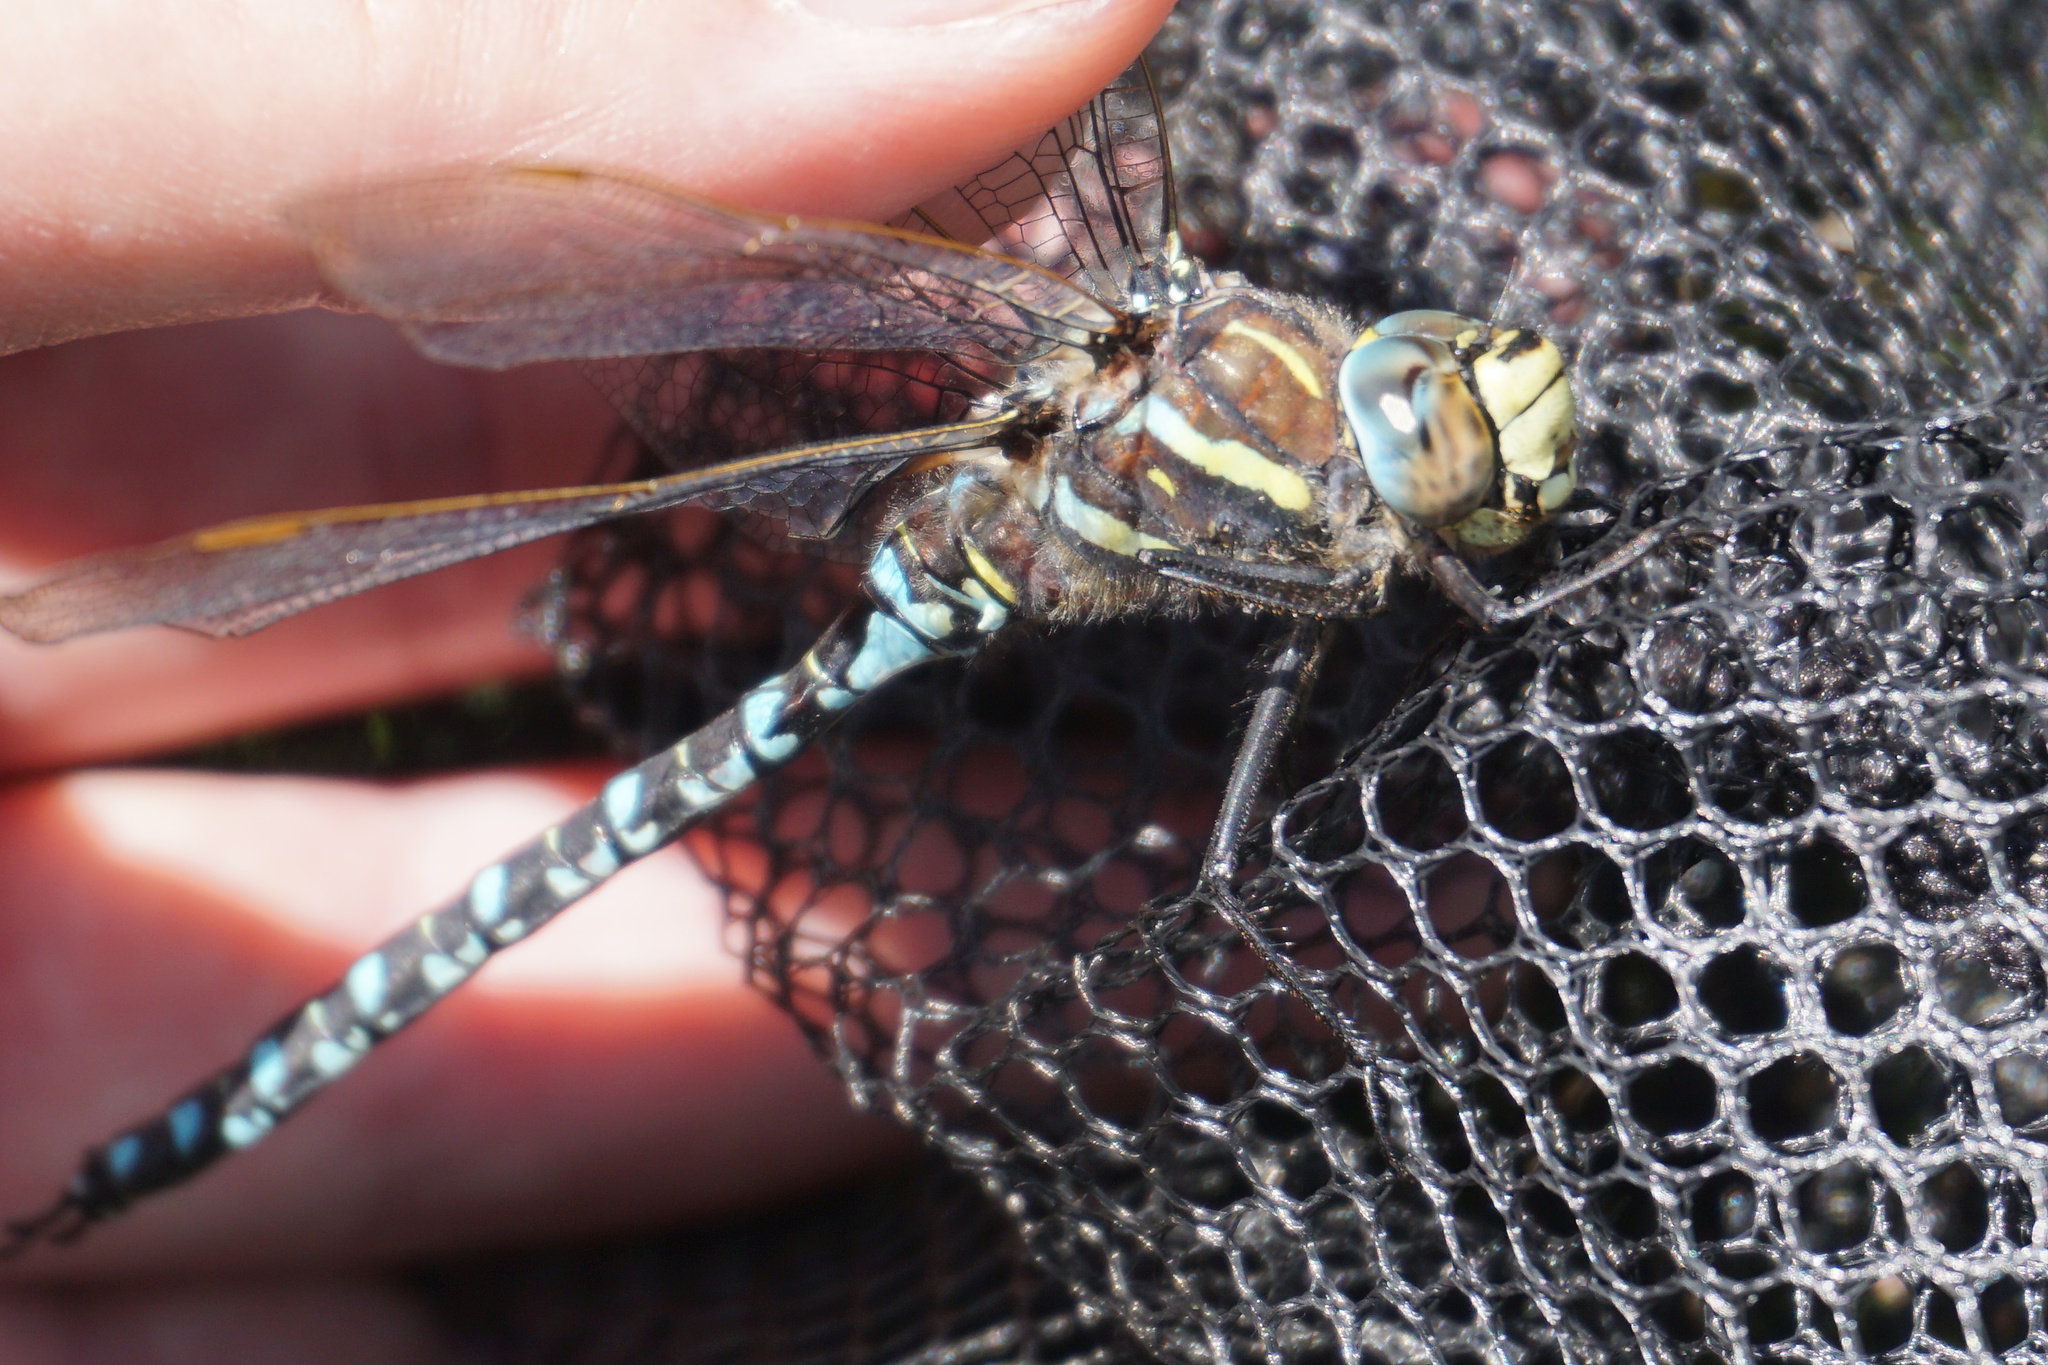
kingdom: Animalia
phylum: Arthropoda
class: Insecta
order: Odonata
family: Aeshnidae
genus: Aeshna
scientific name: Aeshna juncea
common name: Moorland hawker
